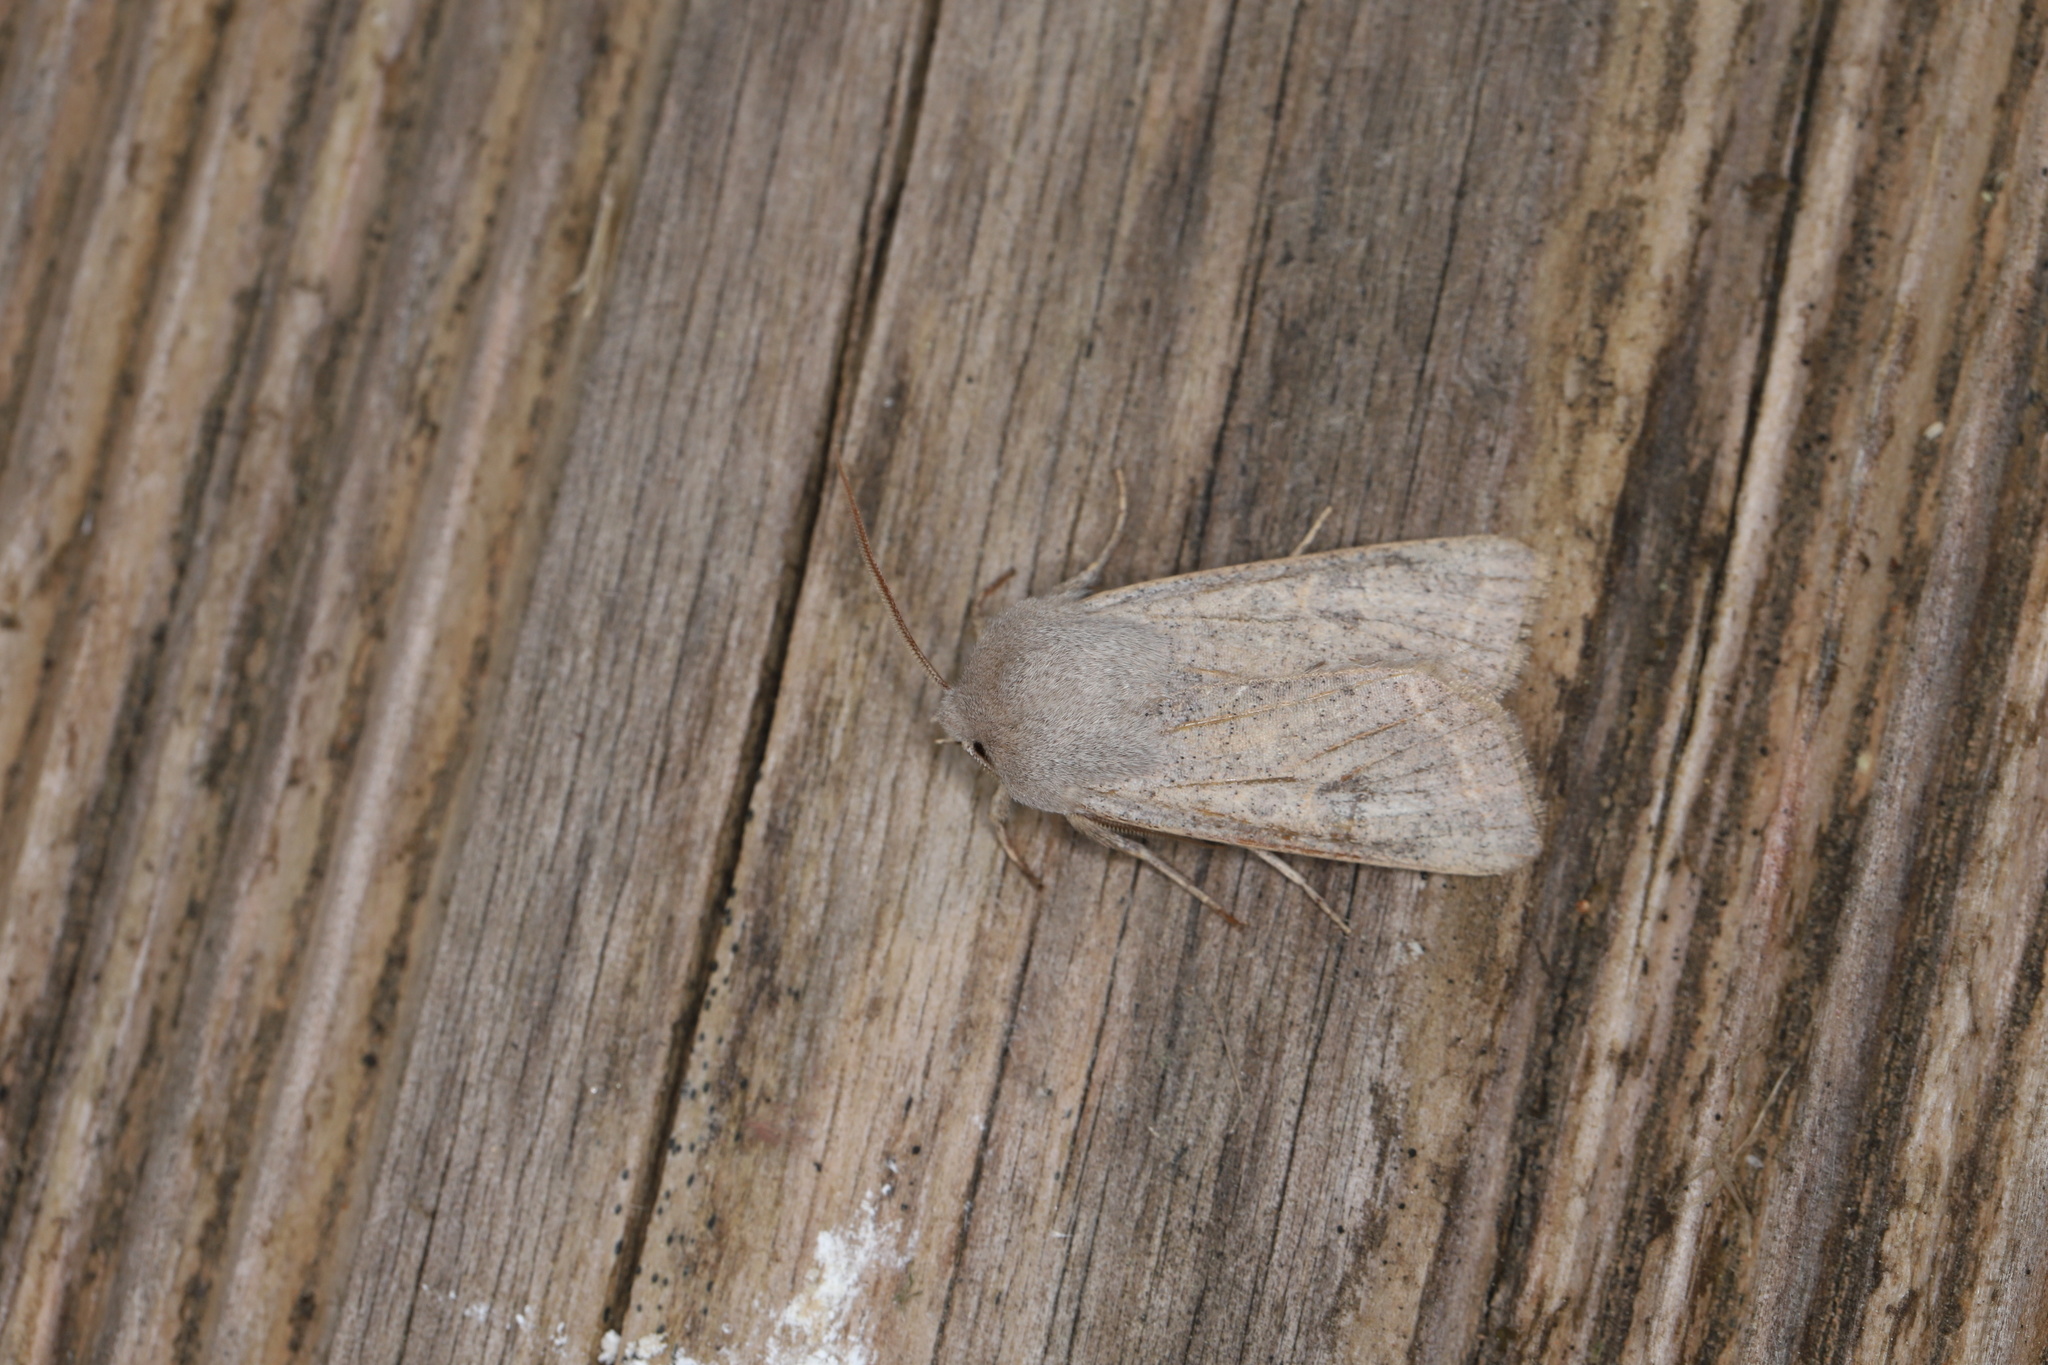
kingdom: Animalia
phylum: Arthropoda
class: Insecta
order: Lepidoptera
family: Noctuidae
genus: Orthosia
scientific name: Orthosia gracilis
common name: Powdered quaker
